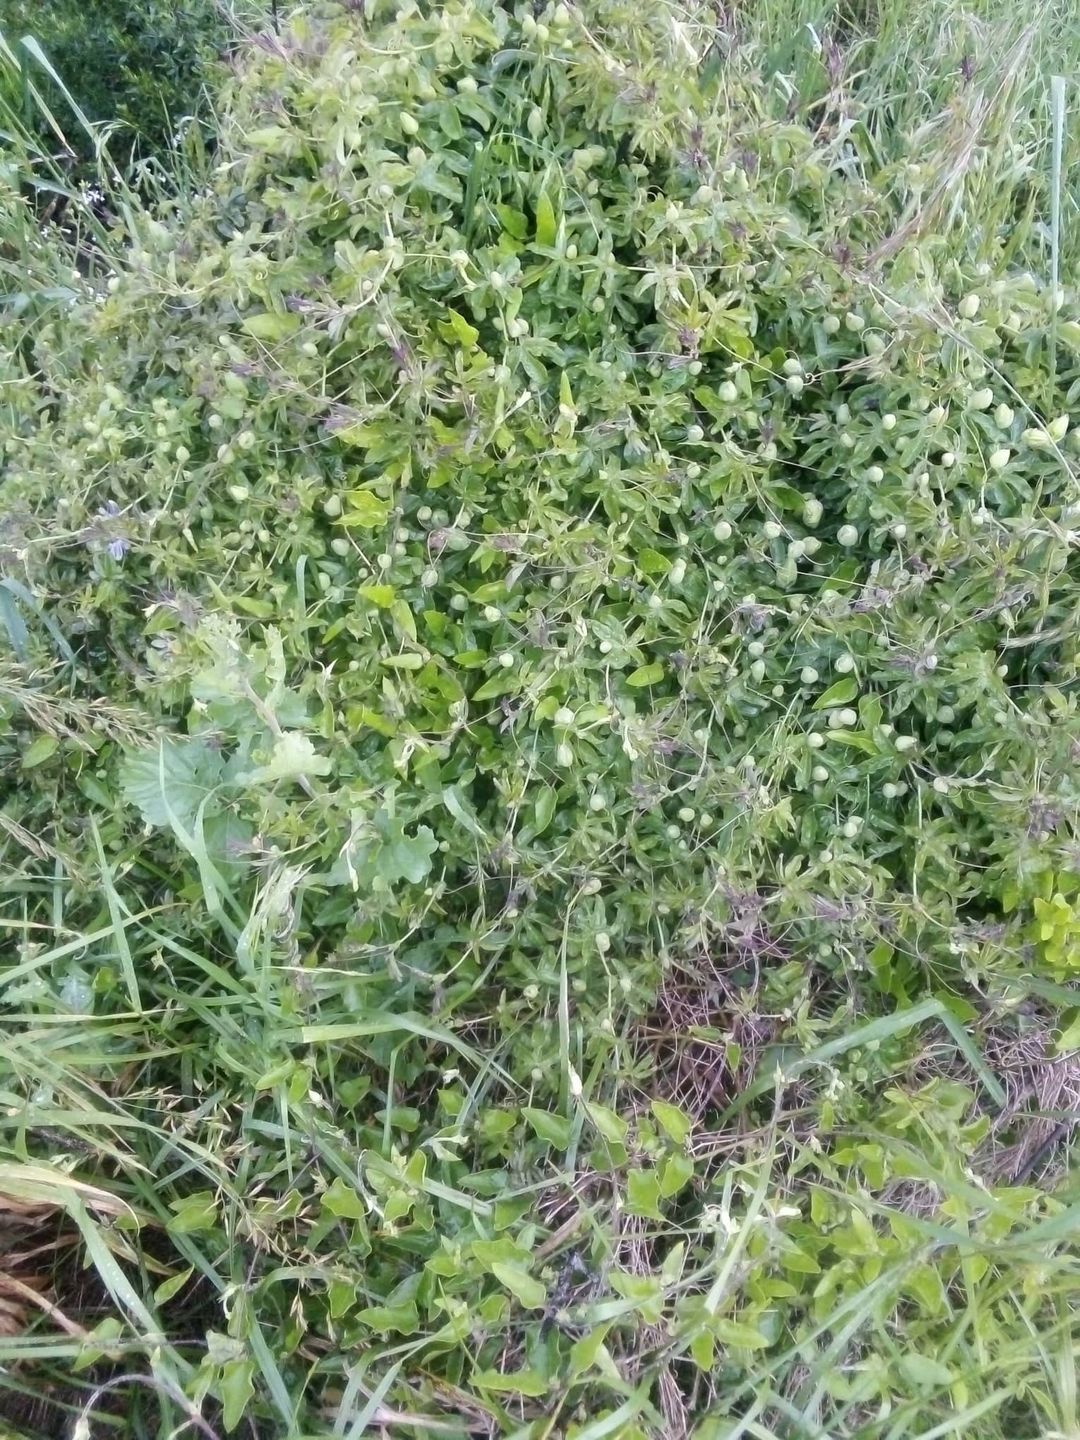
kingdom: Plantae
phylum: Tracheophyta
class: Magnoliopsida
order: Malpighiales
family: Passifloraceae
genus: Passiflora
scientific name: Passiflora caerulea
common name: Blue passionflower
